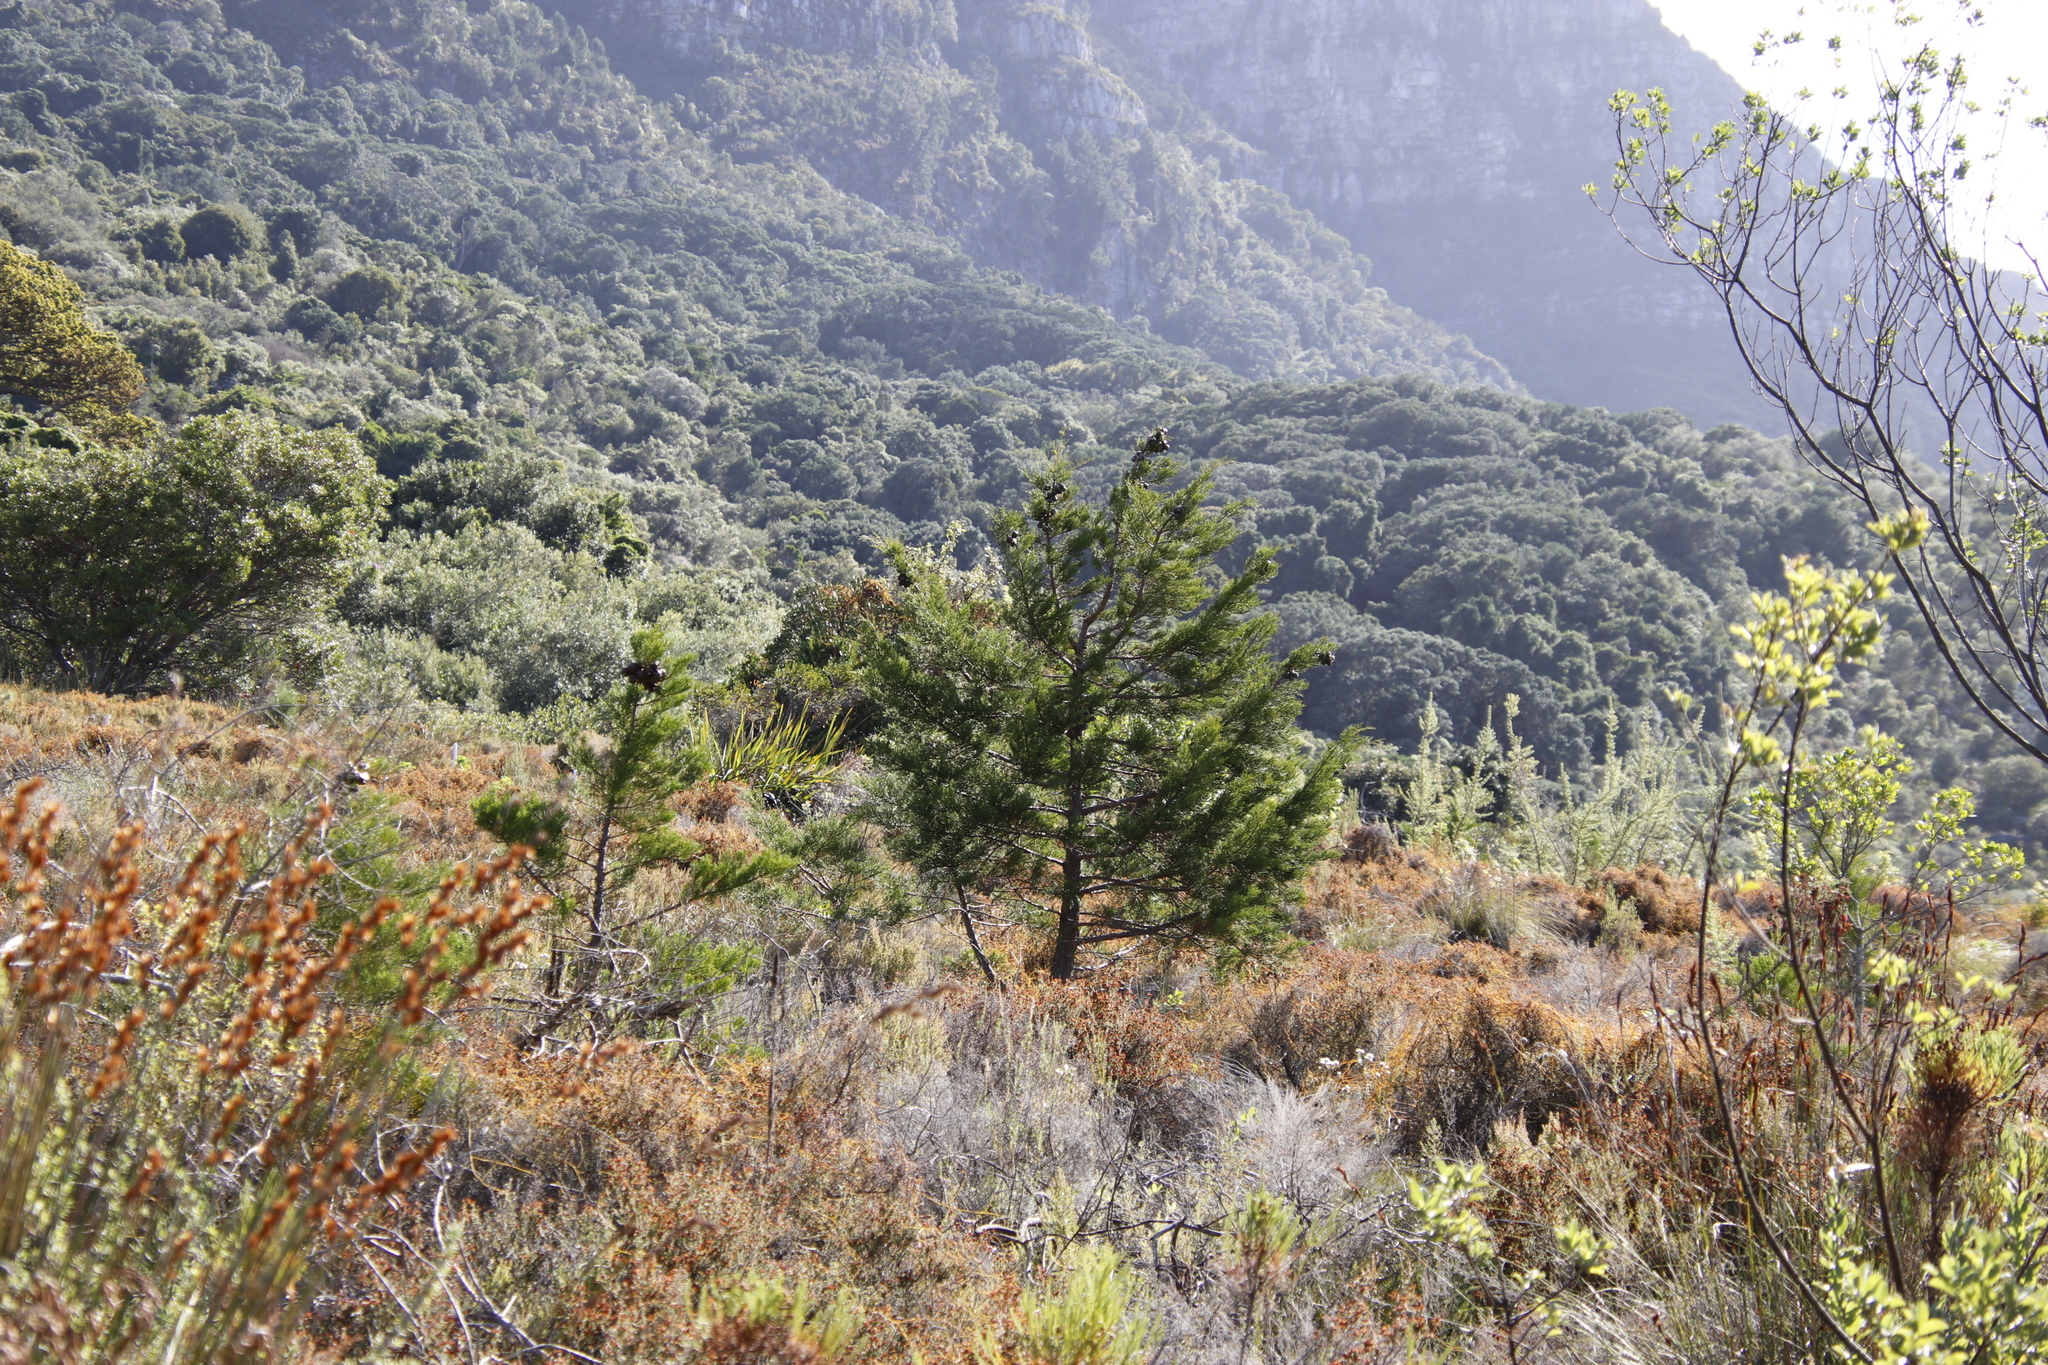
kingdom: Plantae
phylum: Tracheophyta
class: Pinopsida
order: Pinales
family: Cupressaceae
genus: Widdringtonia
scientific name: Widdringtonia schwarzii
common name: Baviaans cedar
